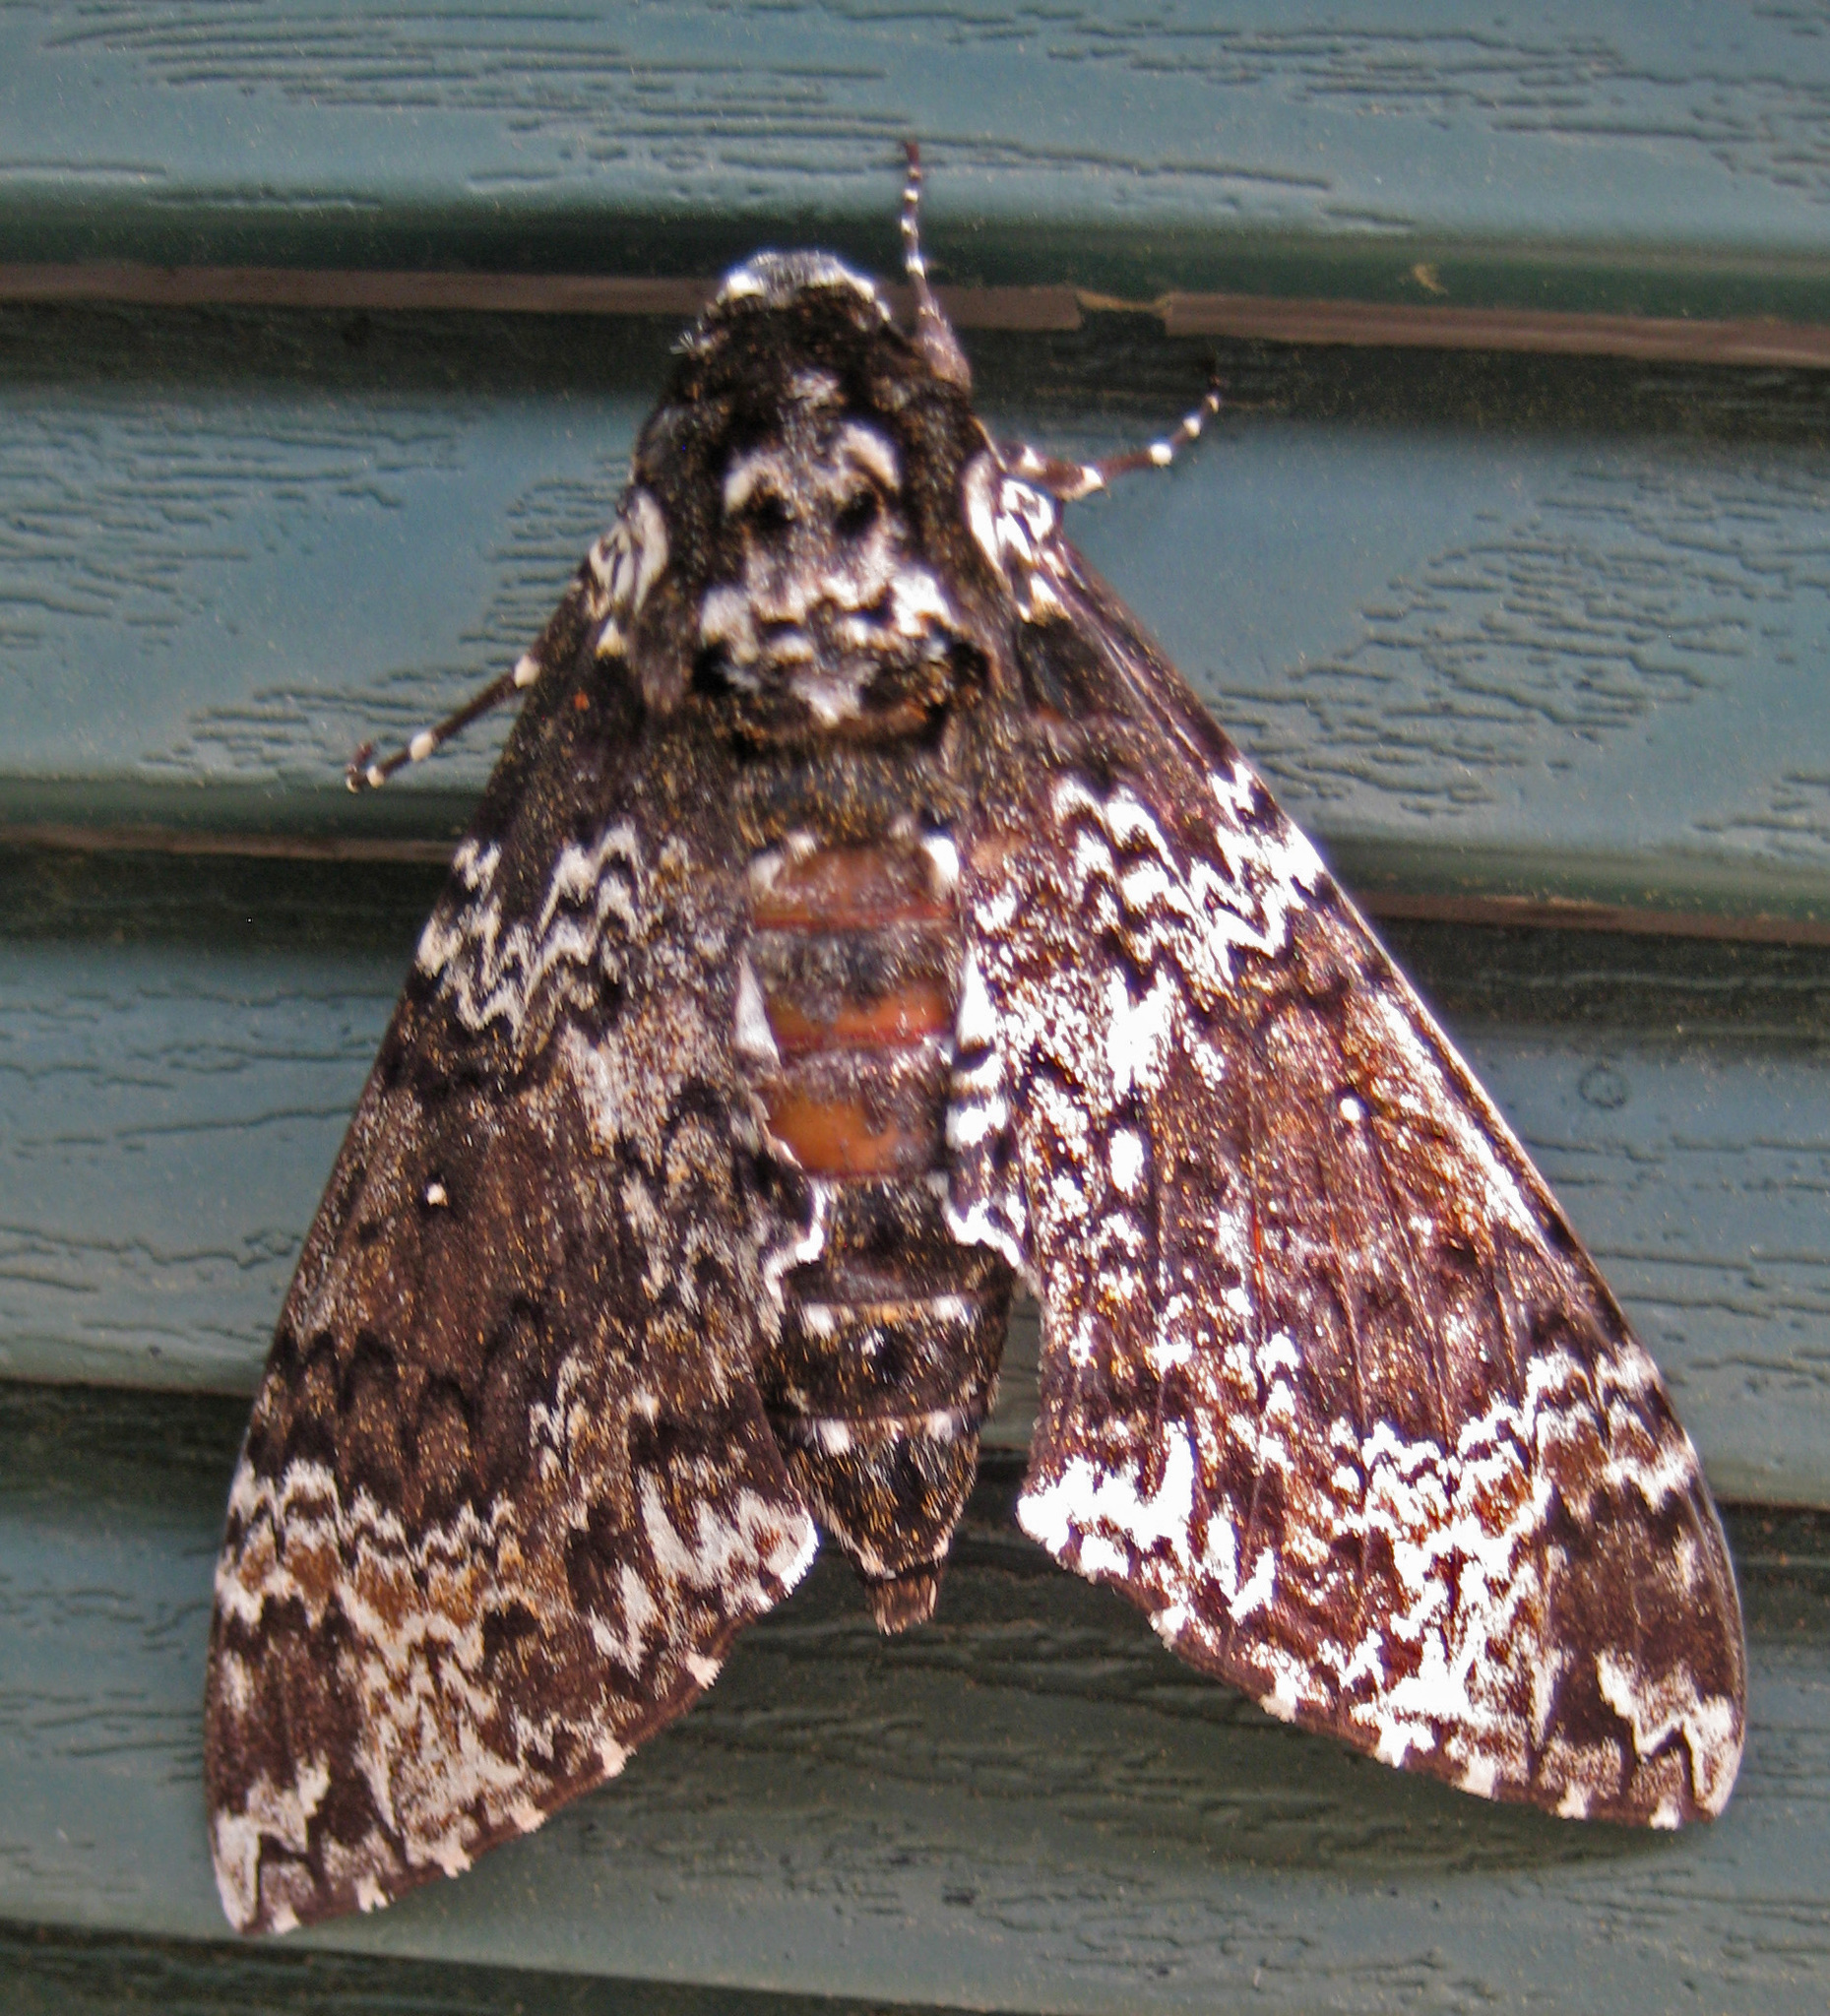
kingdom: Animalia
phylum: Arthropoda
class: Insecta
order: Lepidoptera
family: Sphingidae
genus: Manduca
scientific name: Manduca rustica
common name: Rustic sphinx
